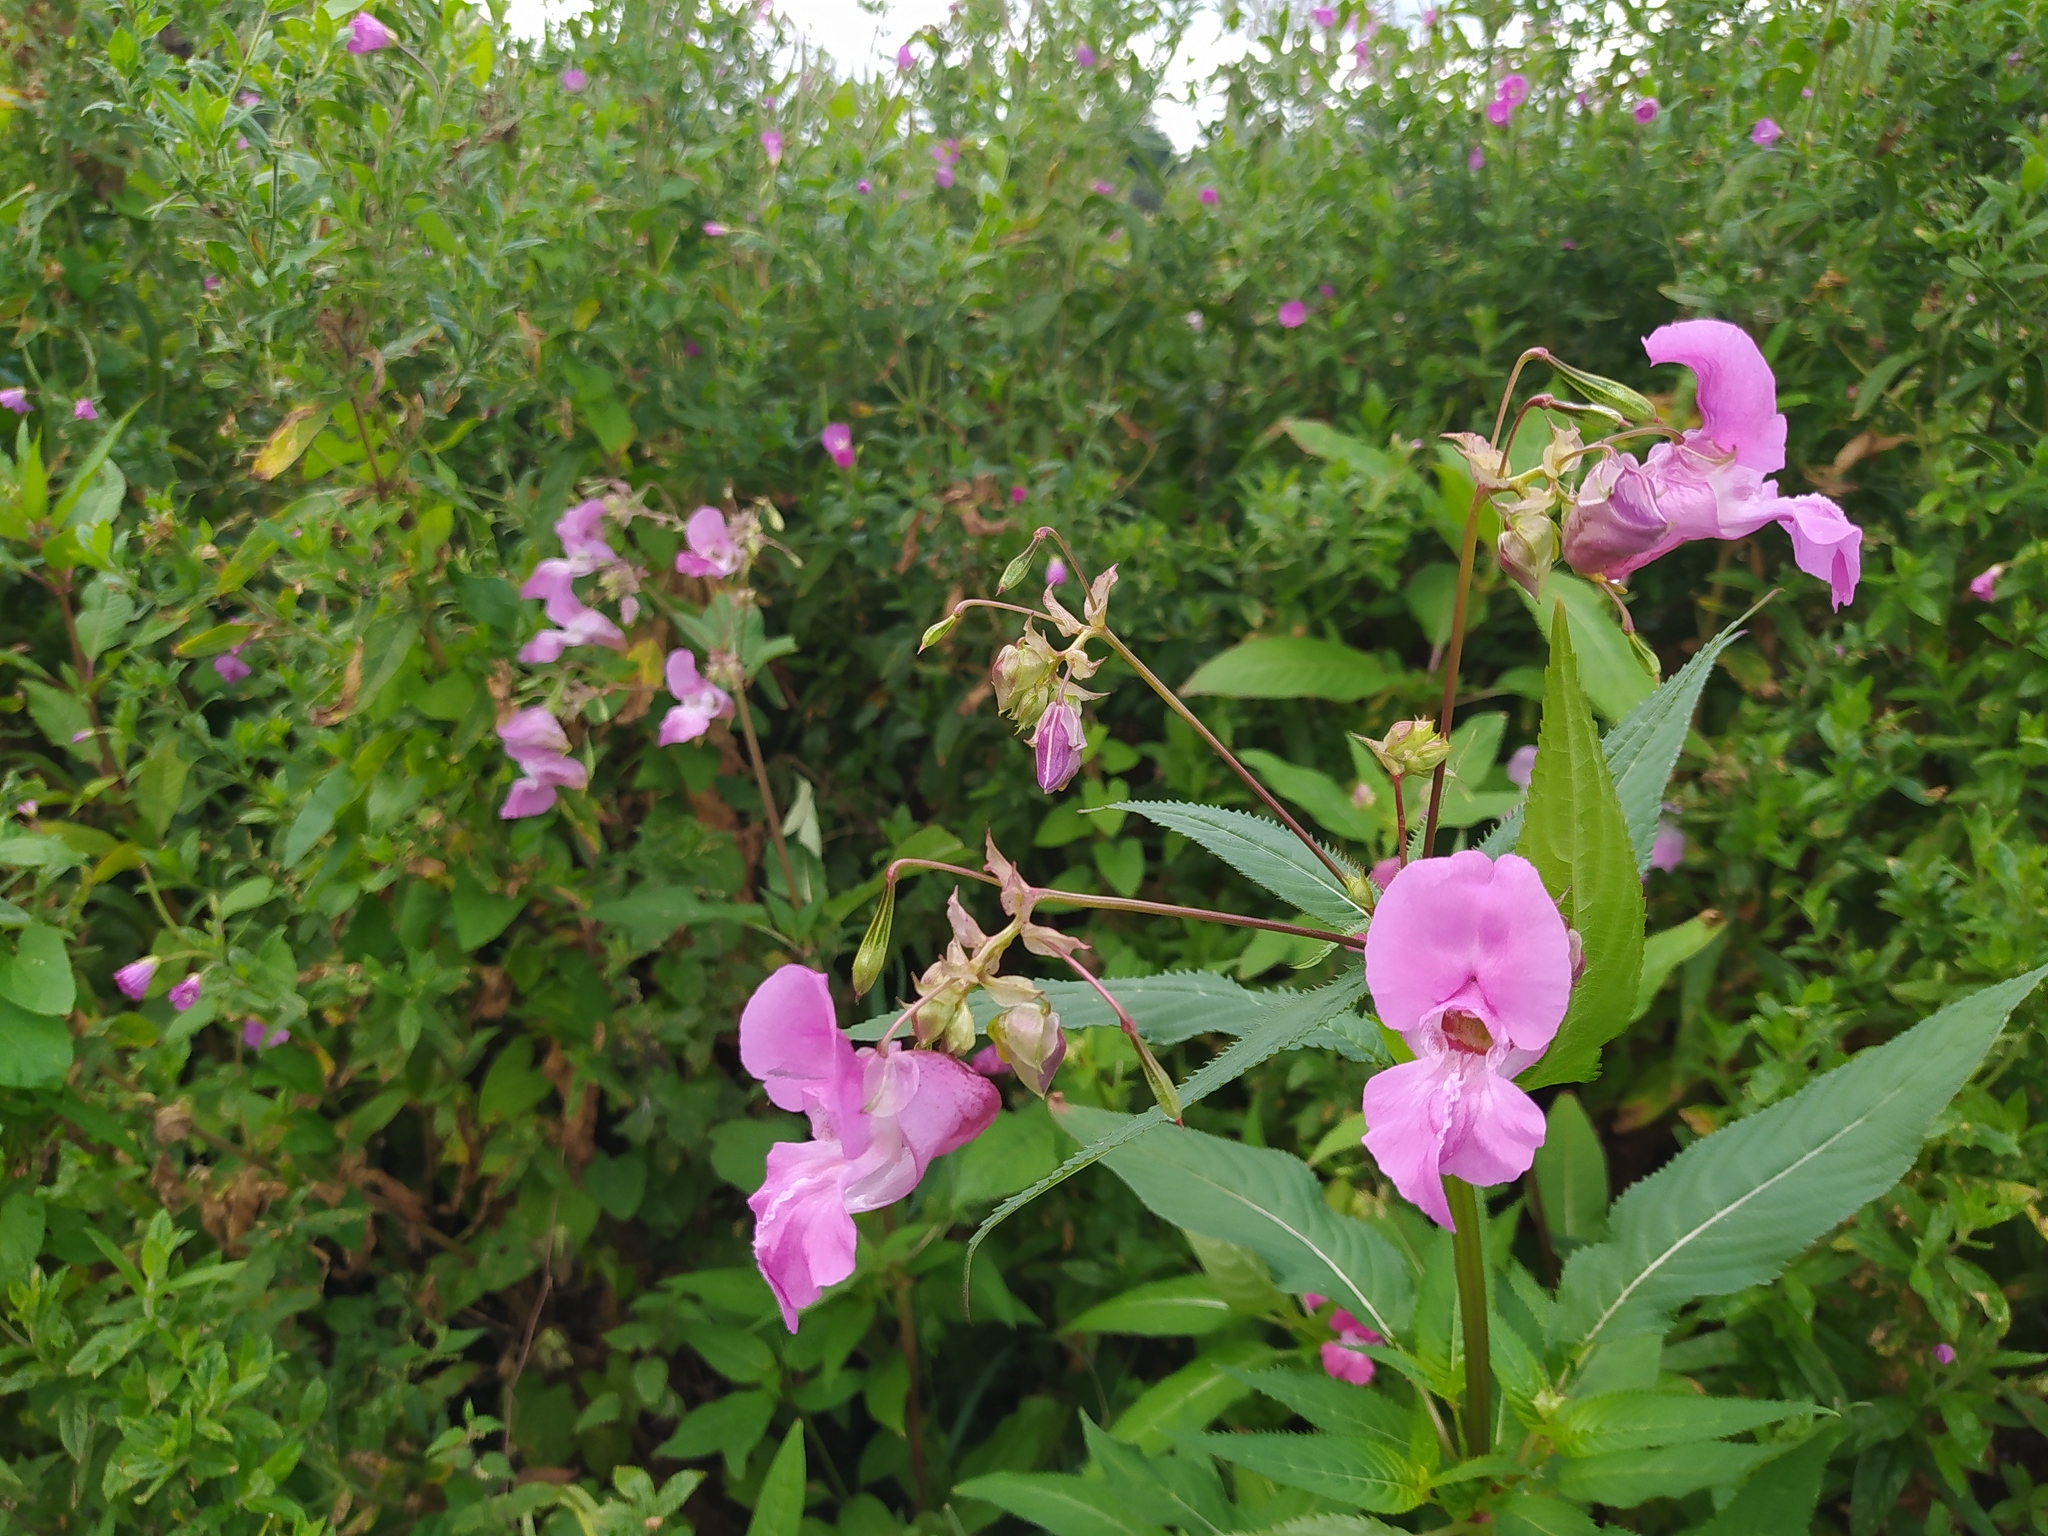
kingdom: Plantae
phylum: Tracheophyta
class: Magnoliopsida
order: Ericales
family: Balsaminaceae
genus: Impatiens
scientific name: Impatiens glandulifera
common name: Himalayan balsam
